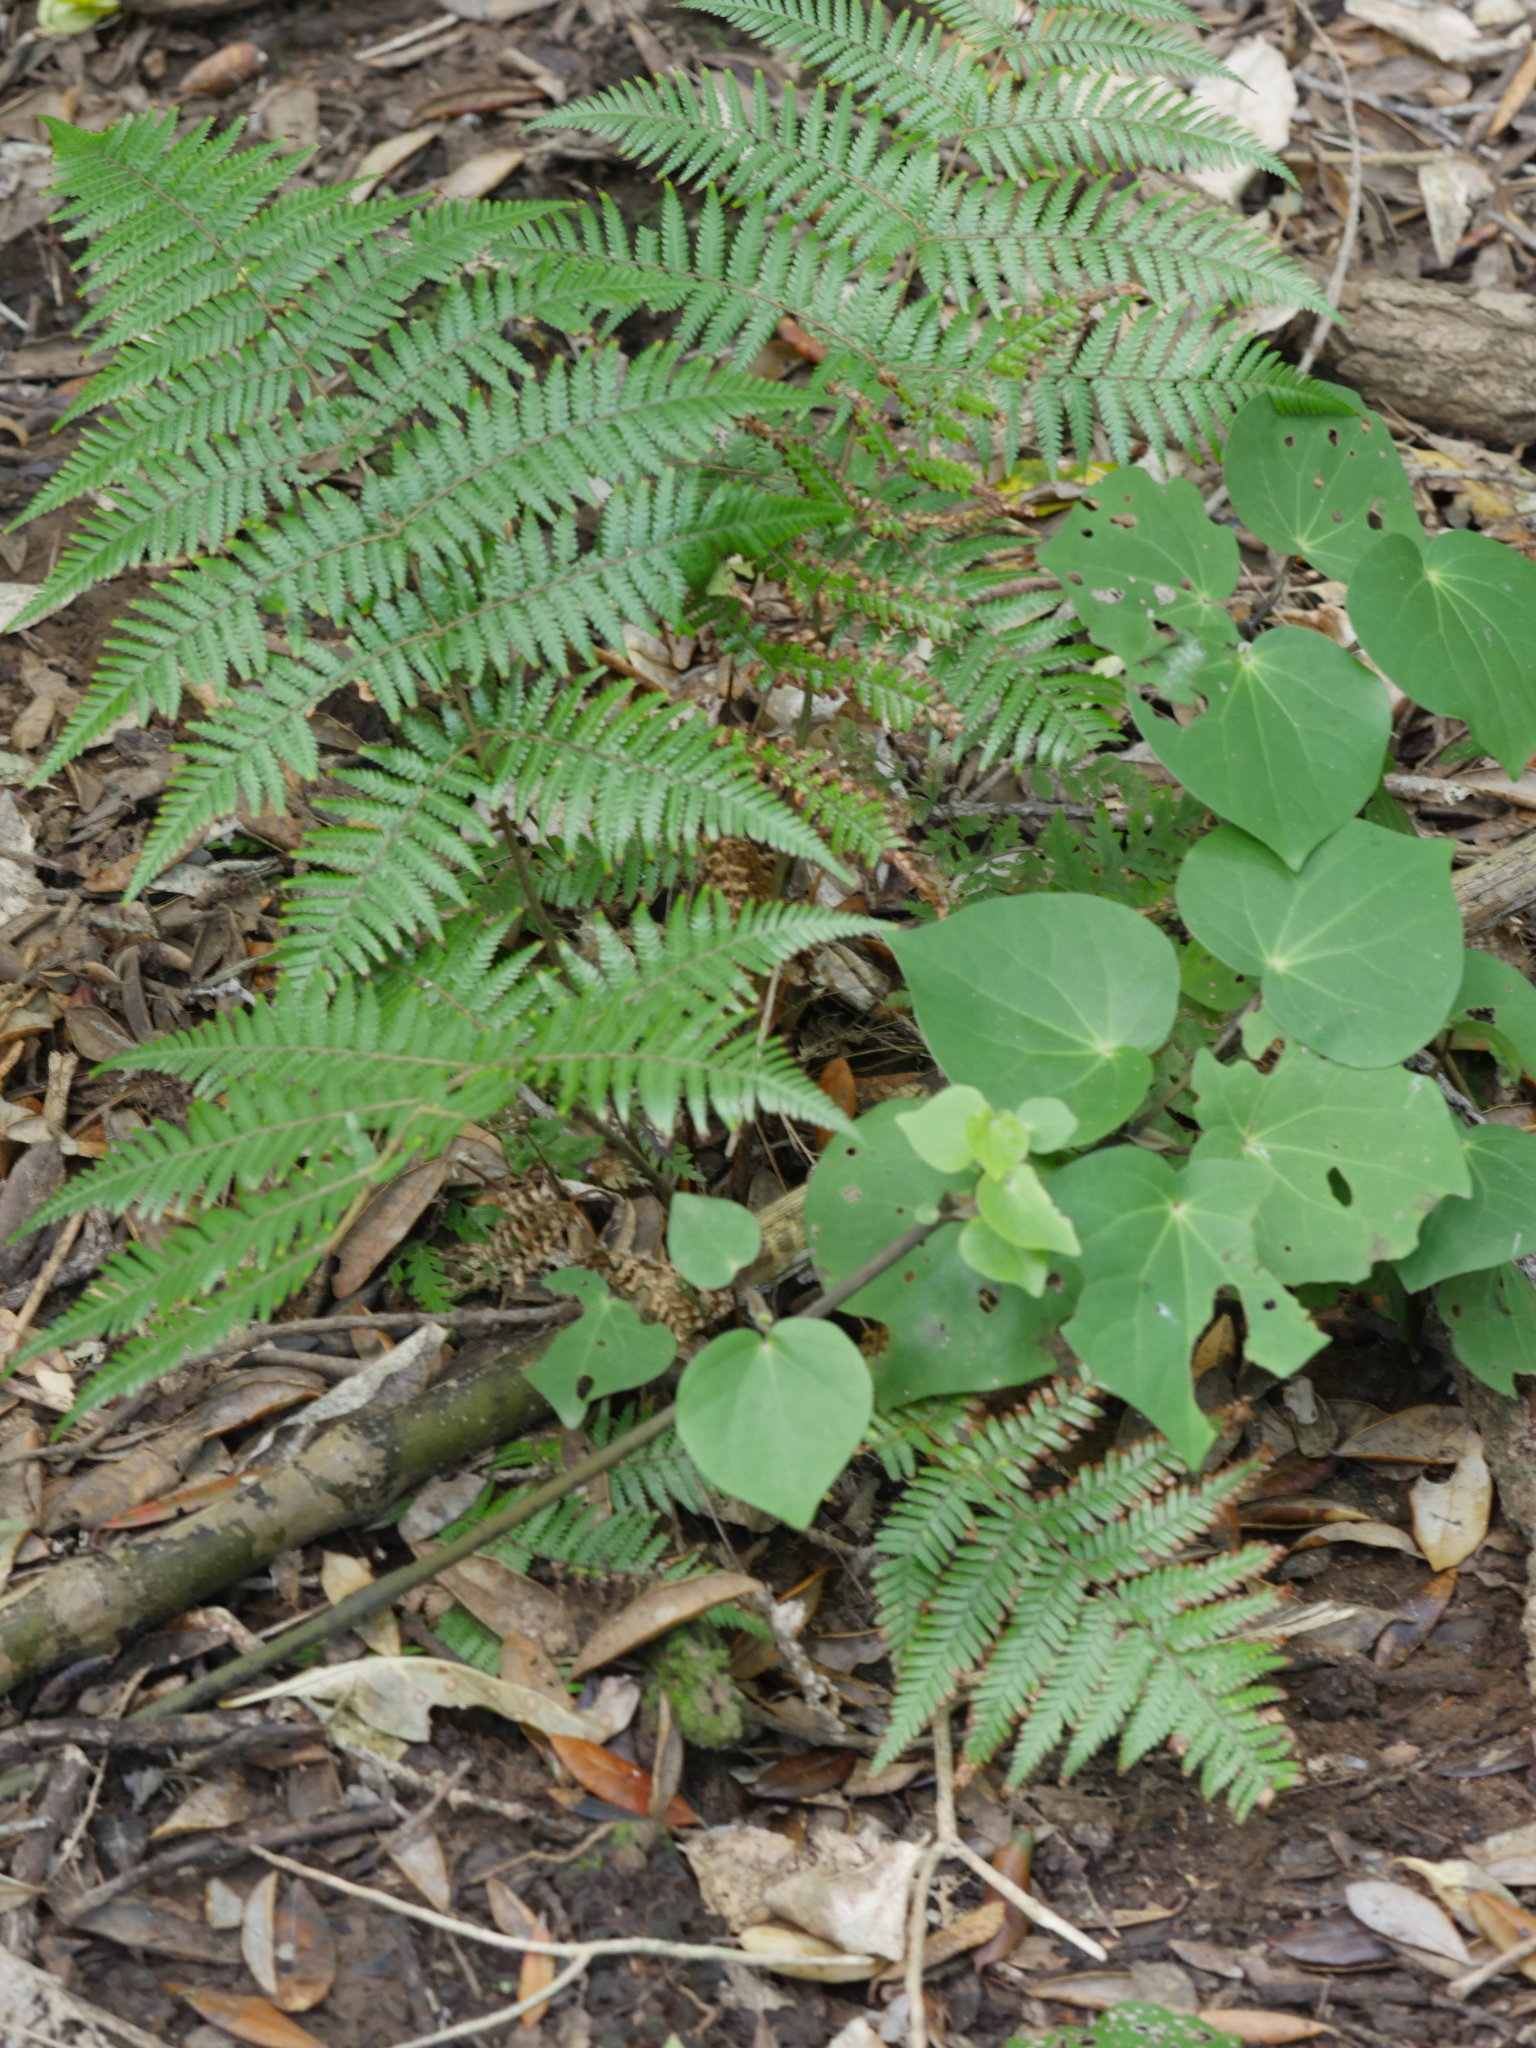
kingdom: Plantae
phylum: Tracheophyta
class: Polypodiopsida
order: Cyatheales
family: Cyatheaceae
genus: Alsophila
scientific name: Alsophila dealbata
